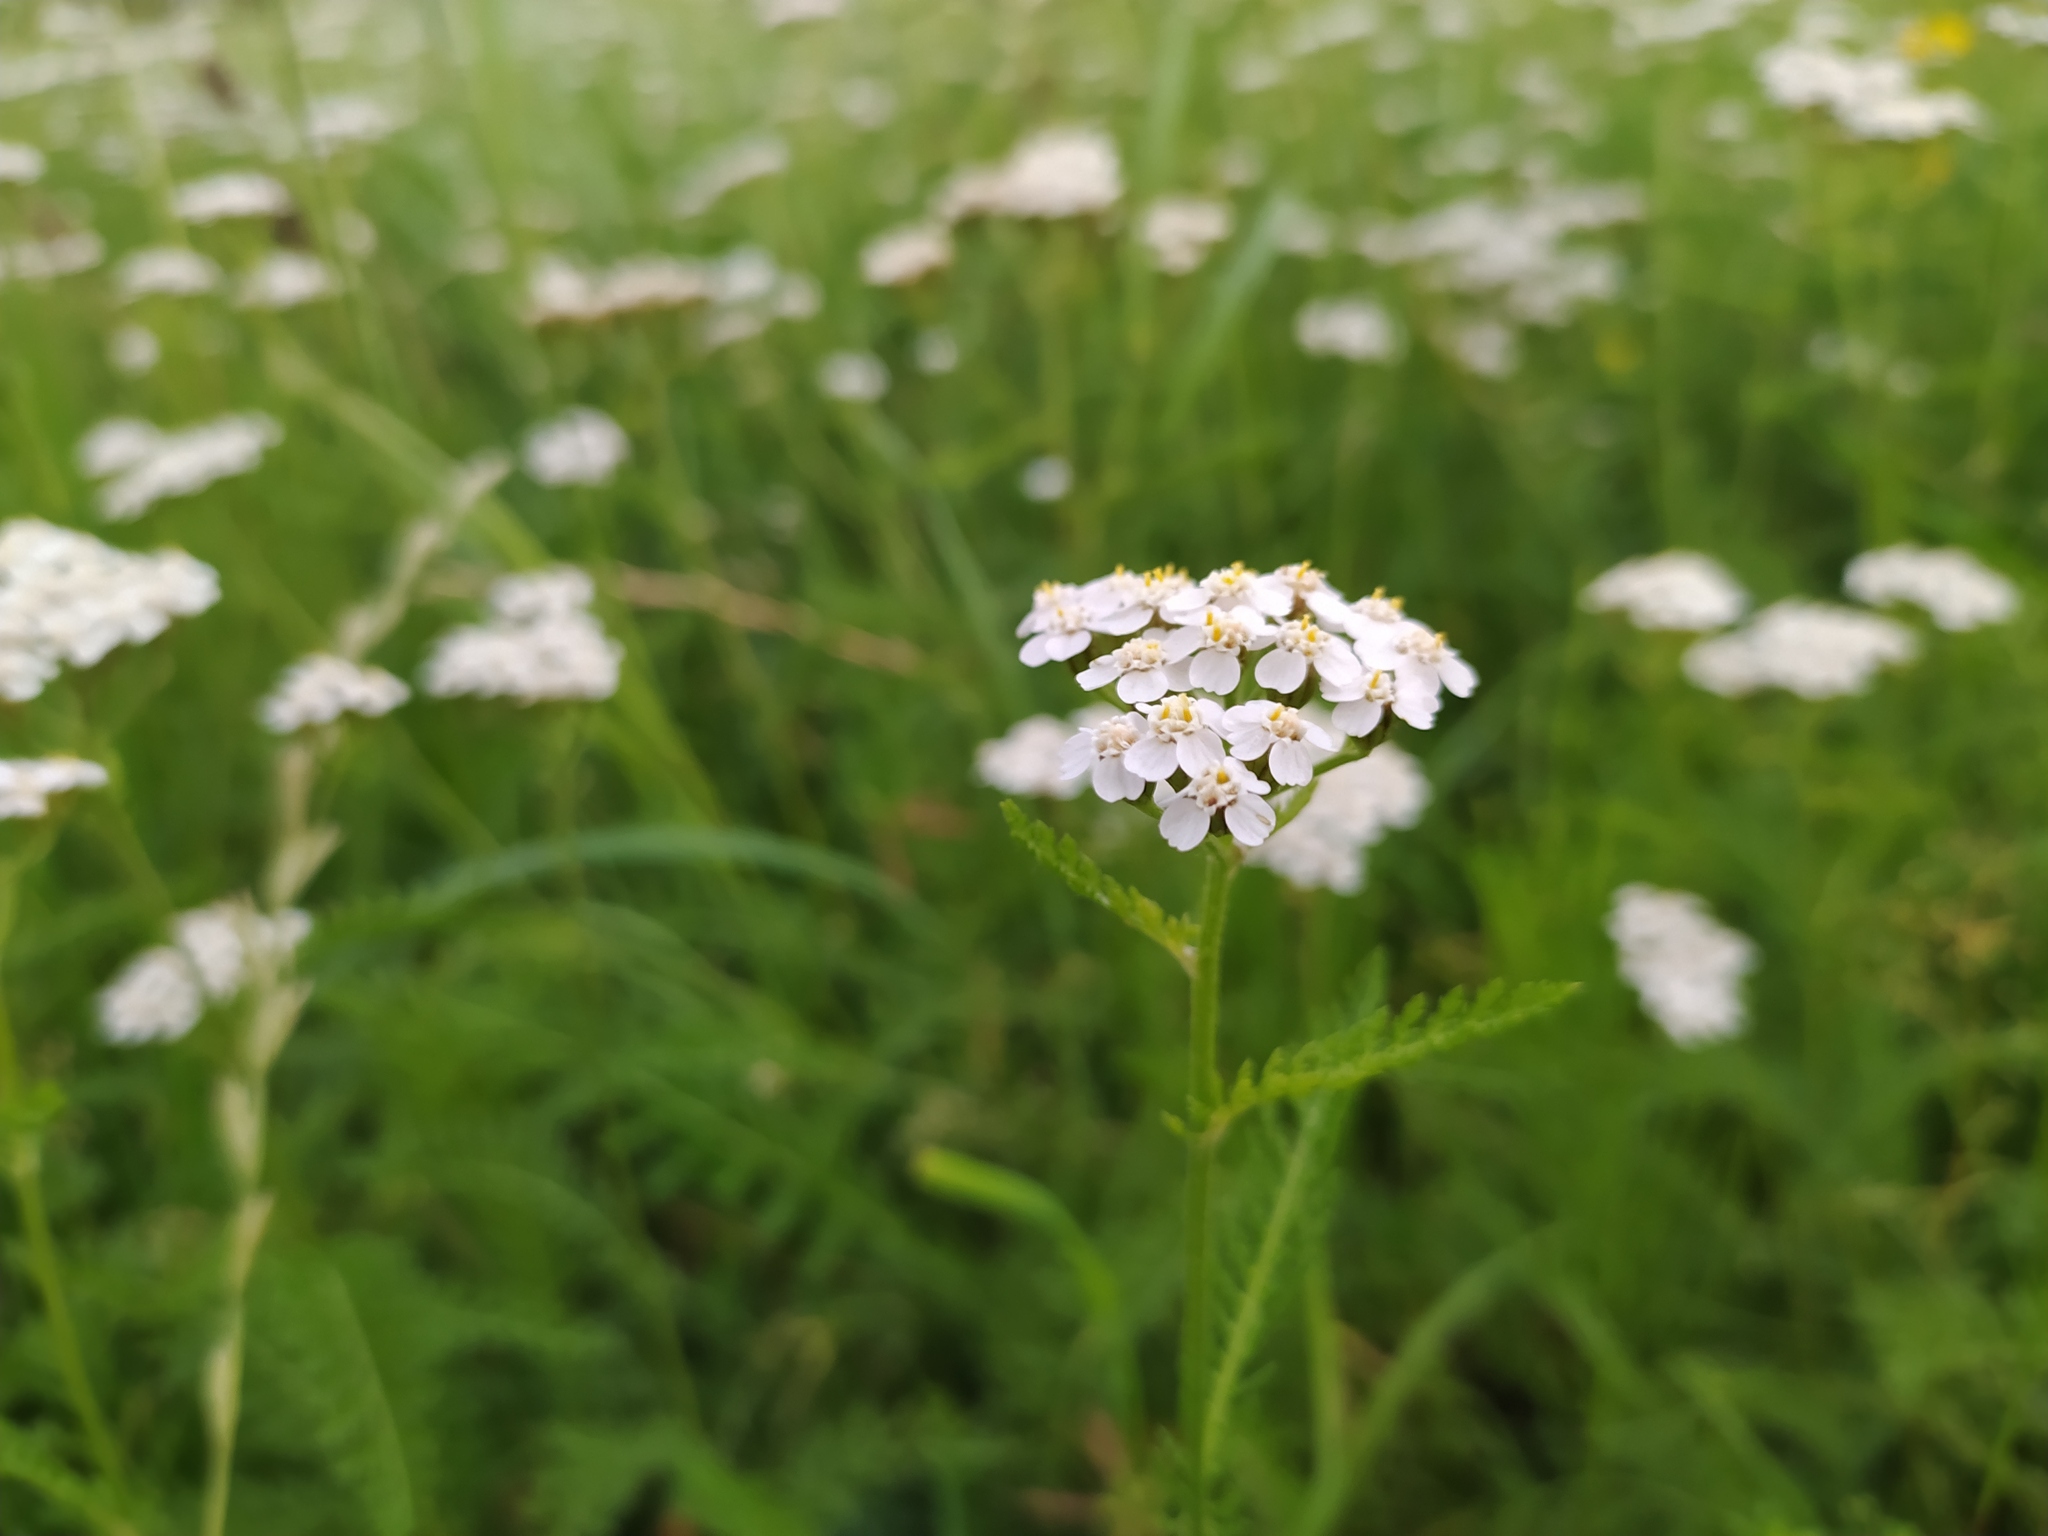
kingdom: Plantae
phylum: Tracheophyta
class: Magnoliopsida
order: Asterales
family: Asteraceae
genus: Achillea
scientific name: Achillea
